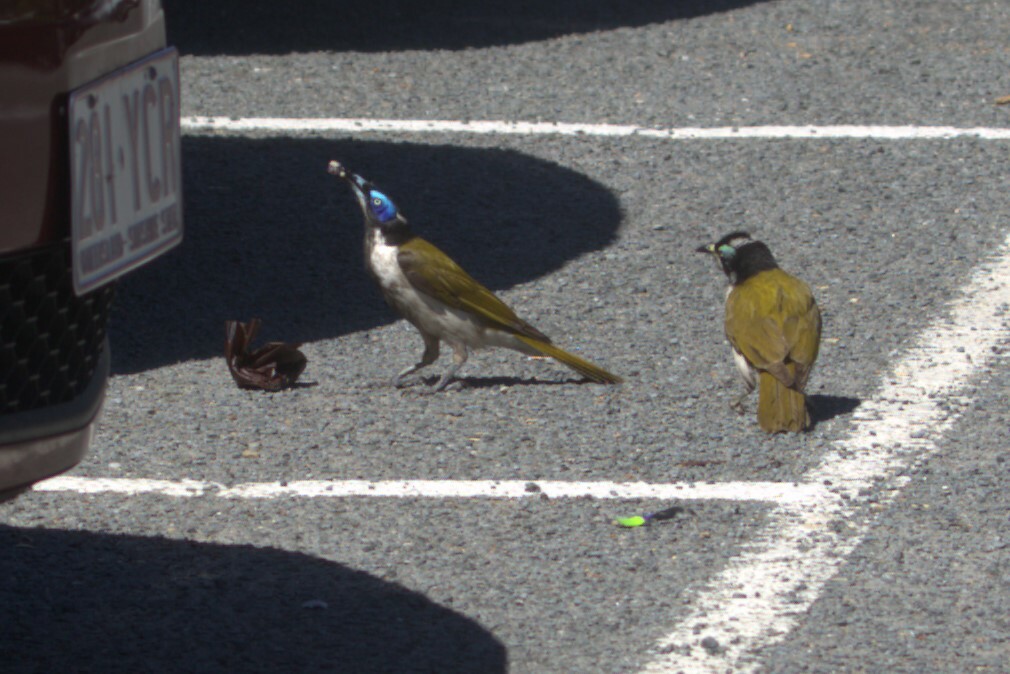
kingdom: Animalia
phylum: Chordata
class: Aves
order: Passeriformes
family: Meliphagidae
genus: Entomyzon
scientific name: Entomyzon cyanotis
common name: Blue-faced honeyeater
